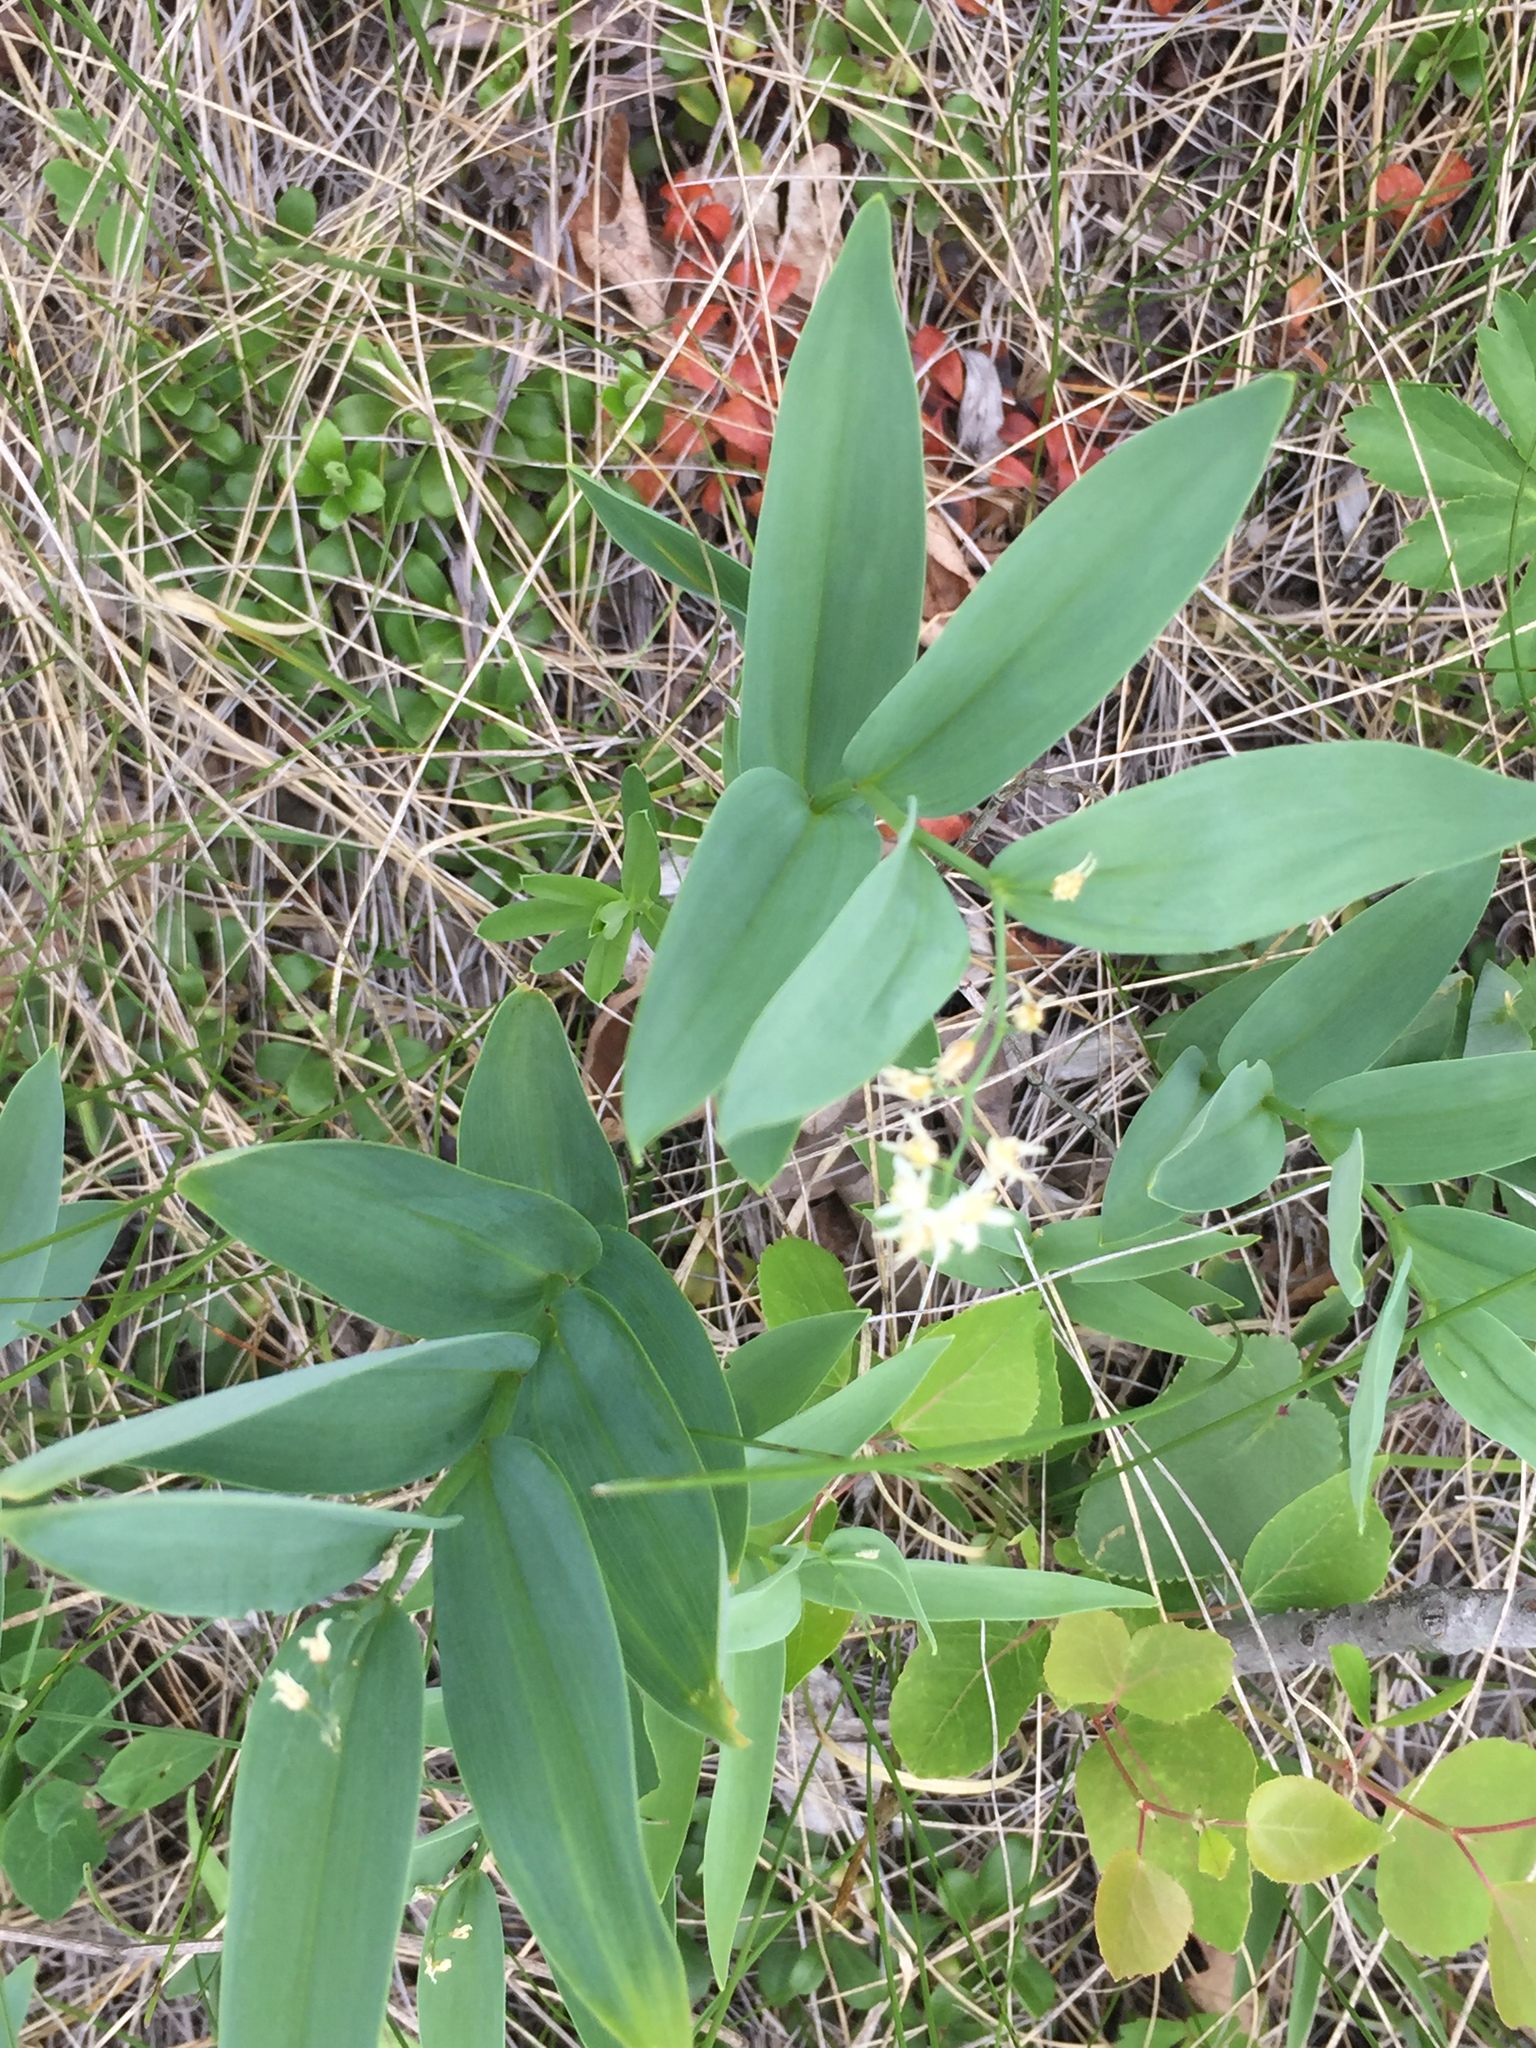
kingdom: Plantae
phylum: Tracheophyta
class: Liliopsida
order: Asparagales
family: Asparagaceae
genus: Maianthemum
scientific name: Maianthemum stellatum
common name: Little false solomon's seal
